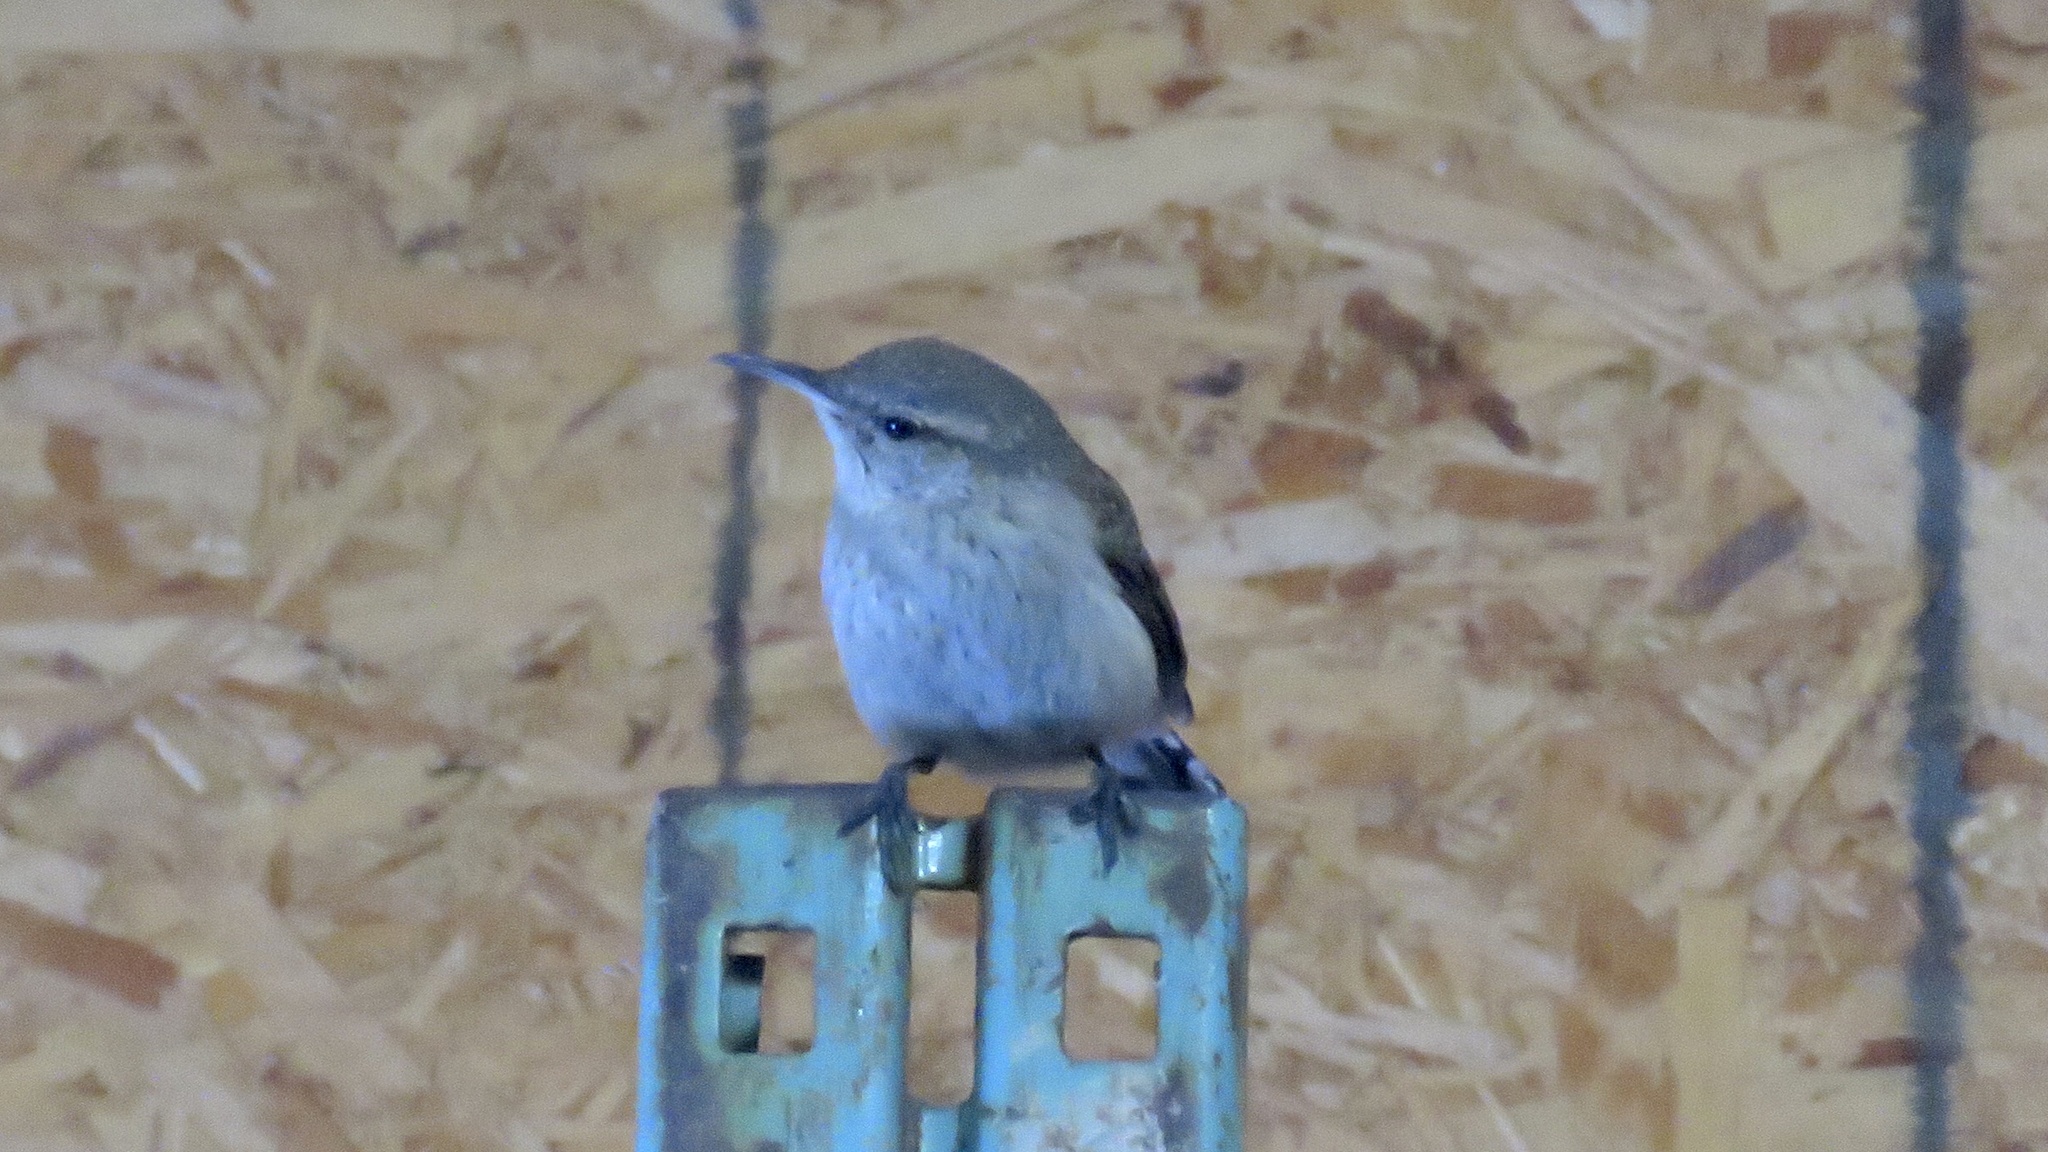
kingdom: Animalia
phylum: Chordata
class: Aves
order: Passeriformes
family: Troglodytidae
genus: Salpinctes
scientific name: Salpinctes obsoletus
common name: Rock wren
